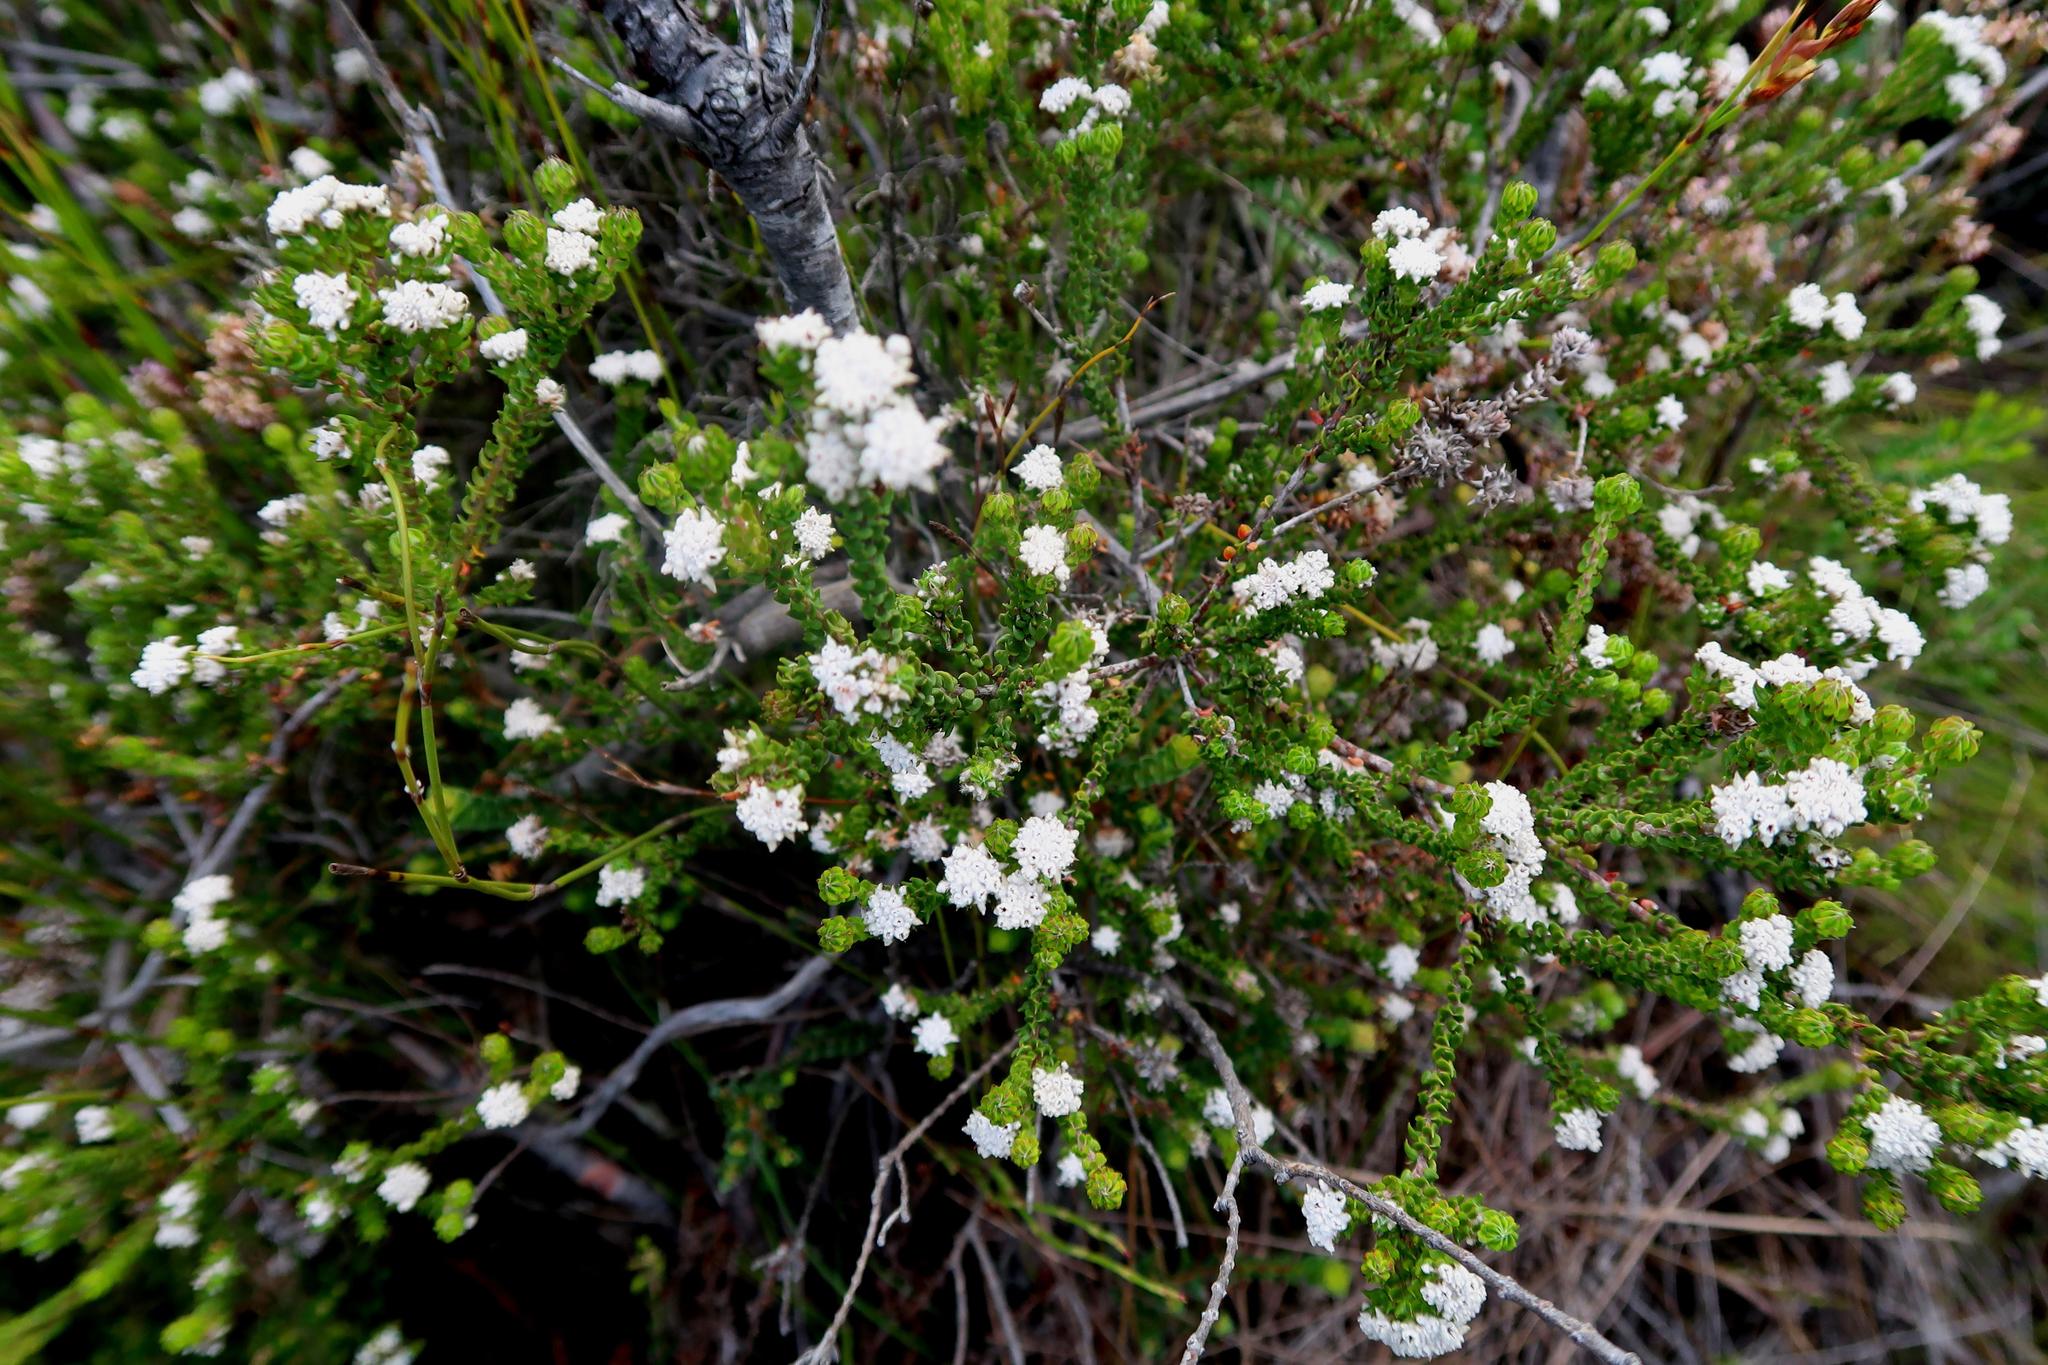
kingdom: Plantae
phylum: Tracheophyta
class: Magnoliopsida
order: Rosales
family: Rhamnaceae
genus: Phylica
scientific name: Phylica debilis
